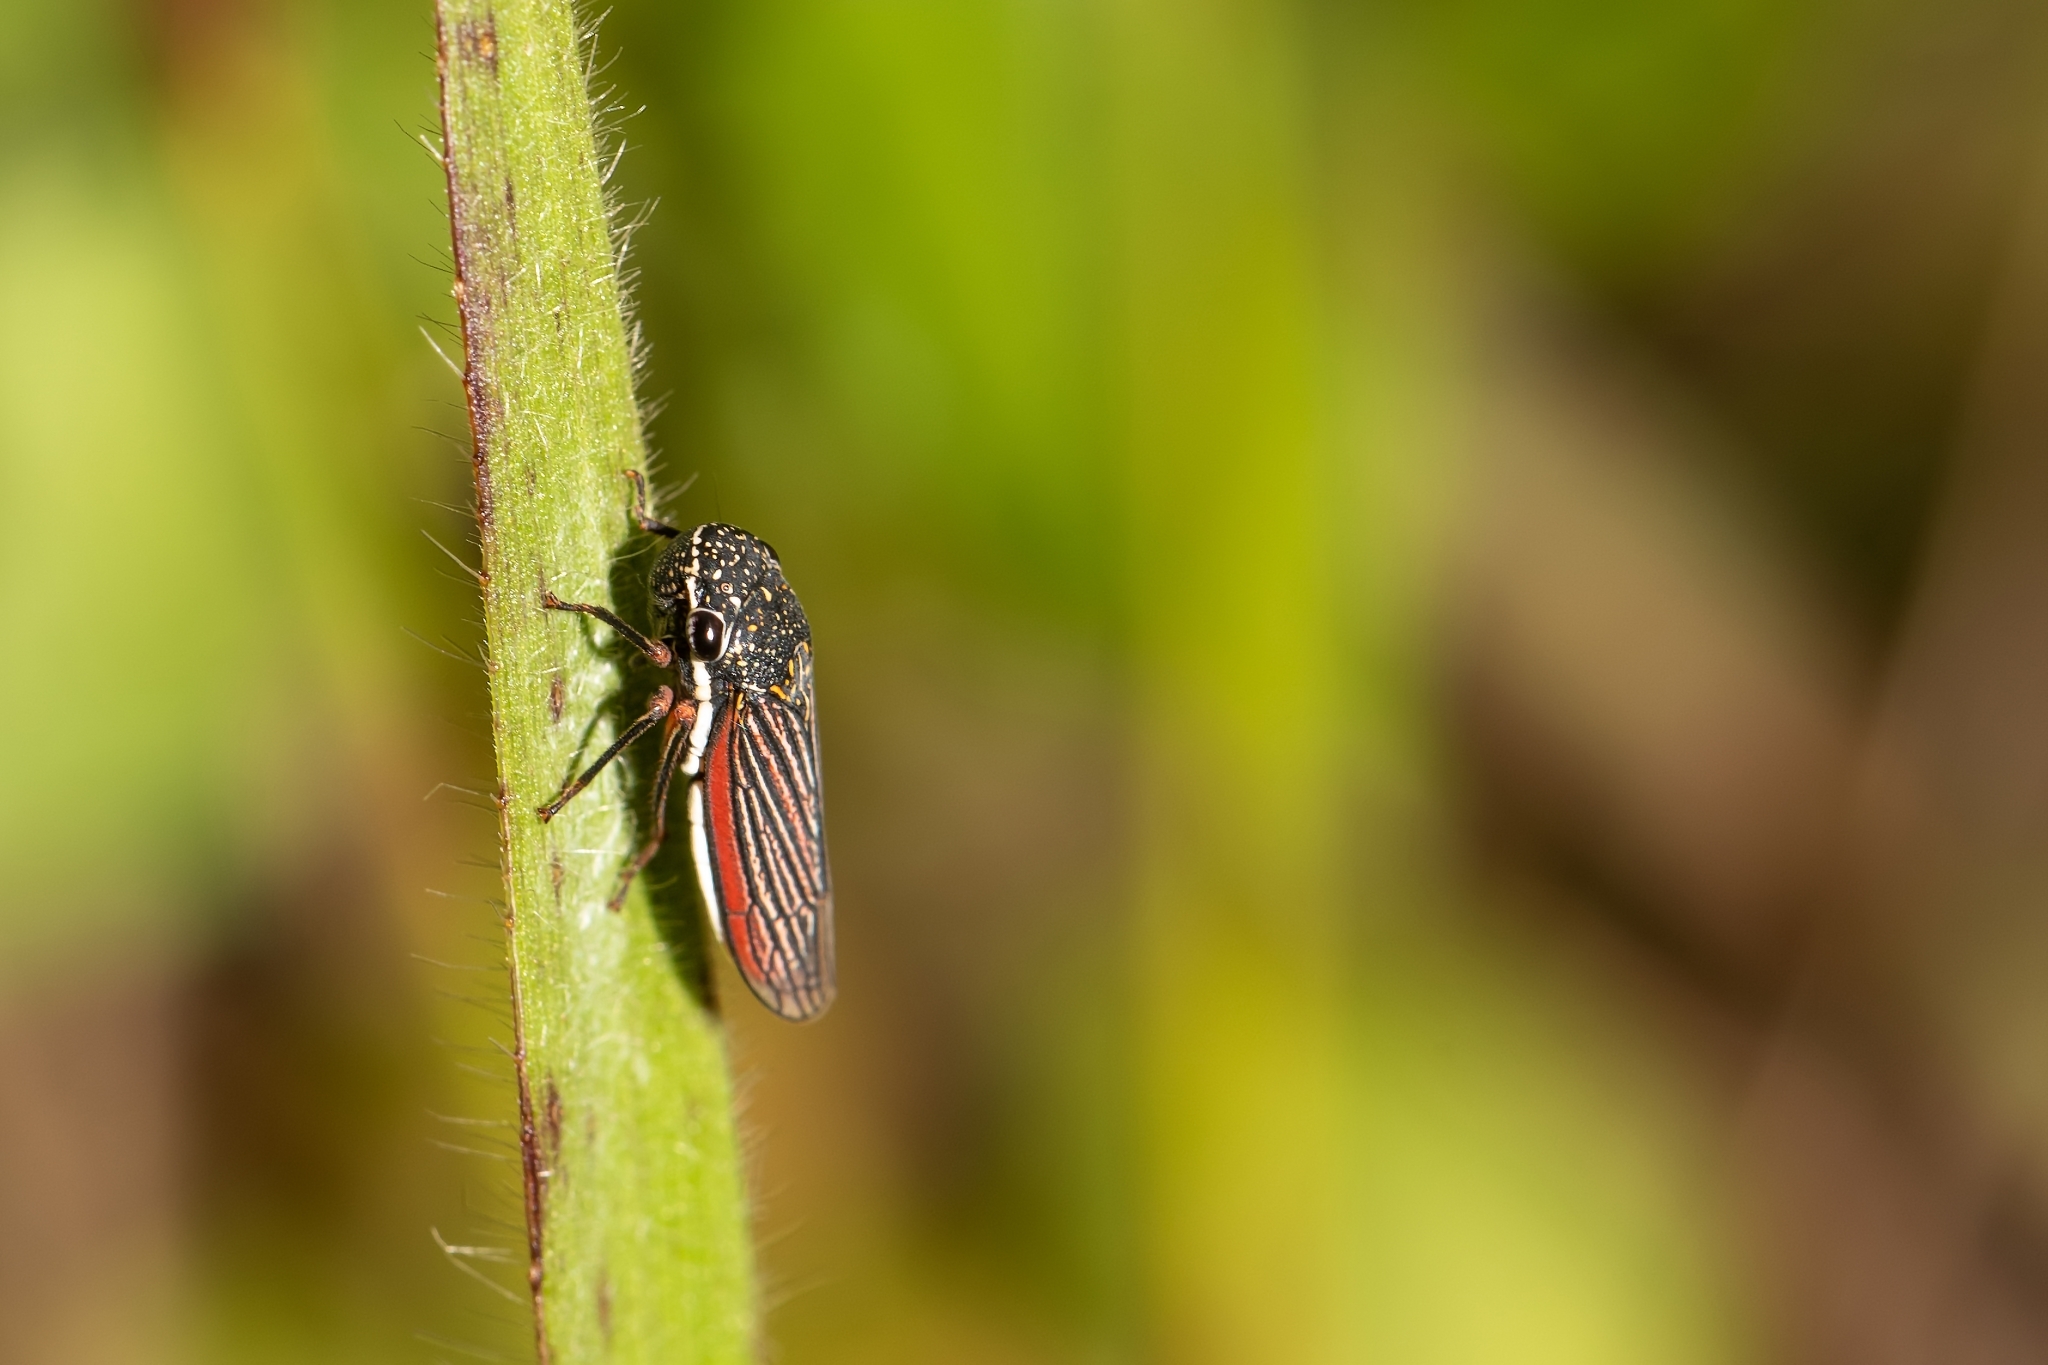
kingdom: Animalia
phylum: Arthropoda
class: Insecta
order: Hemiptera
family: Cicadellidae
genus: Cuerna
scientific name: Cuerna costalis
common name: Lateral-lined sharpshooter
